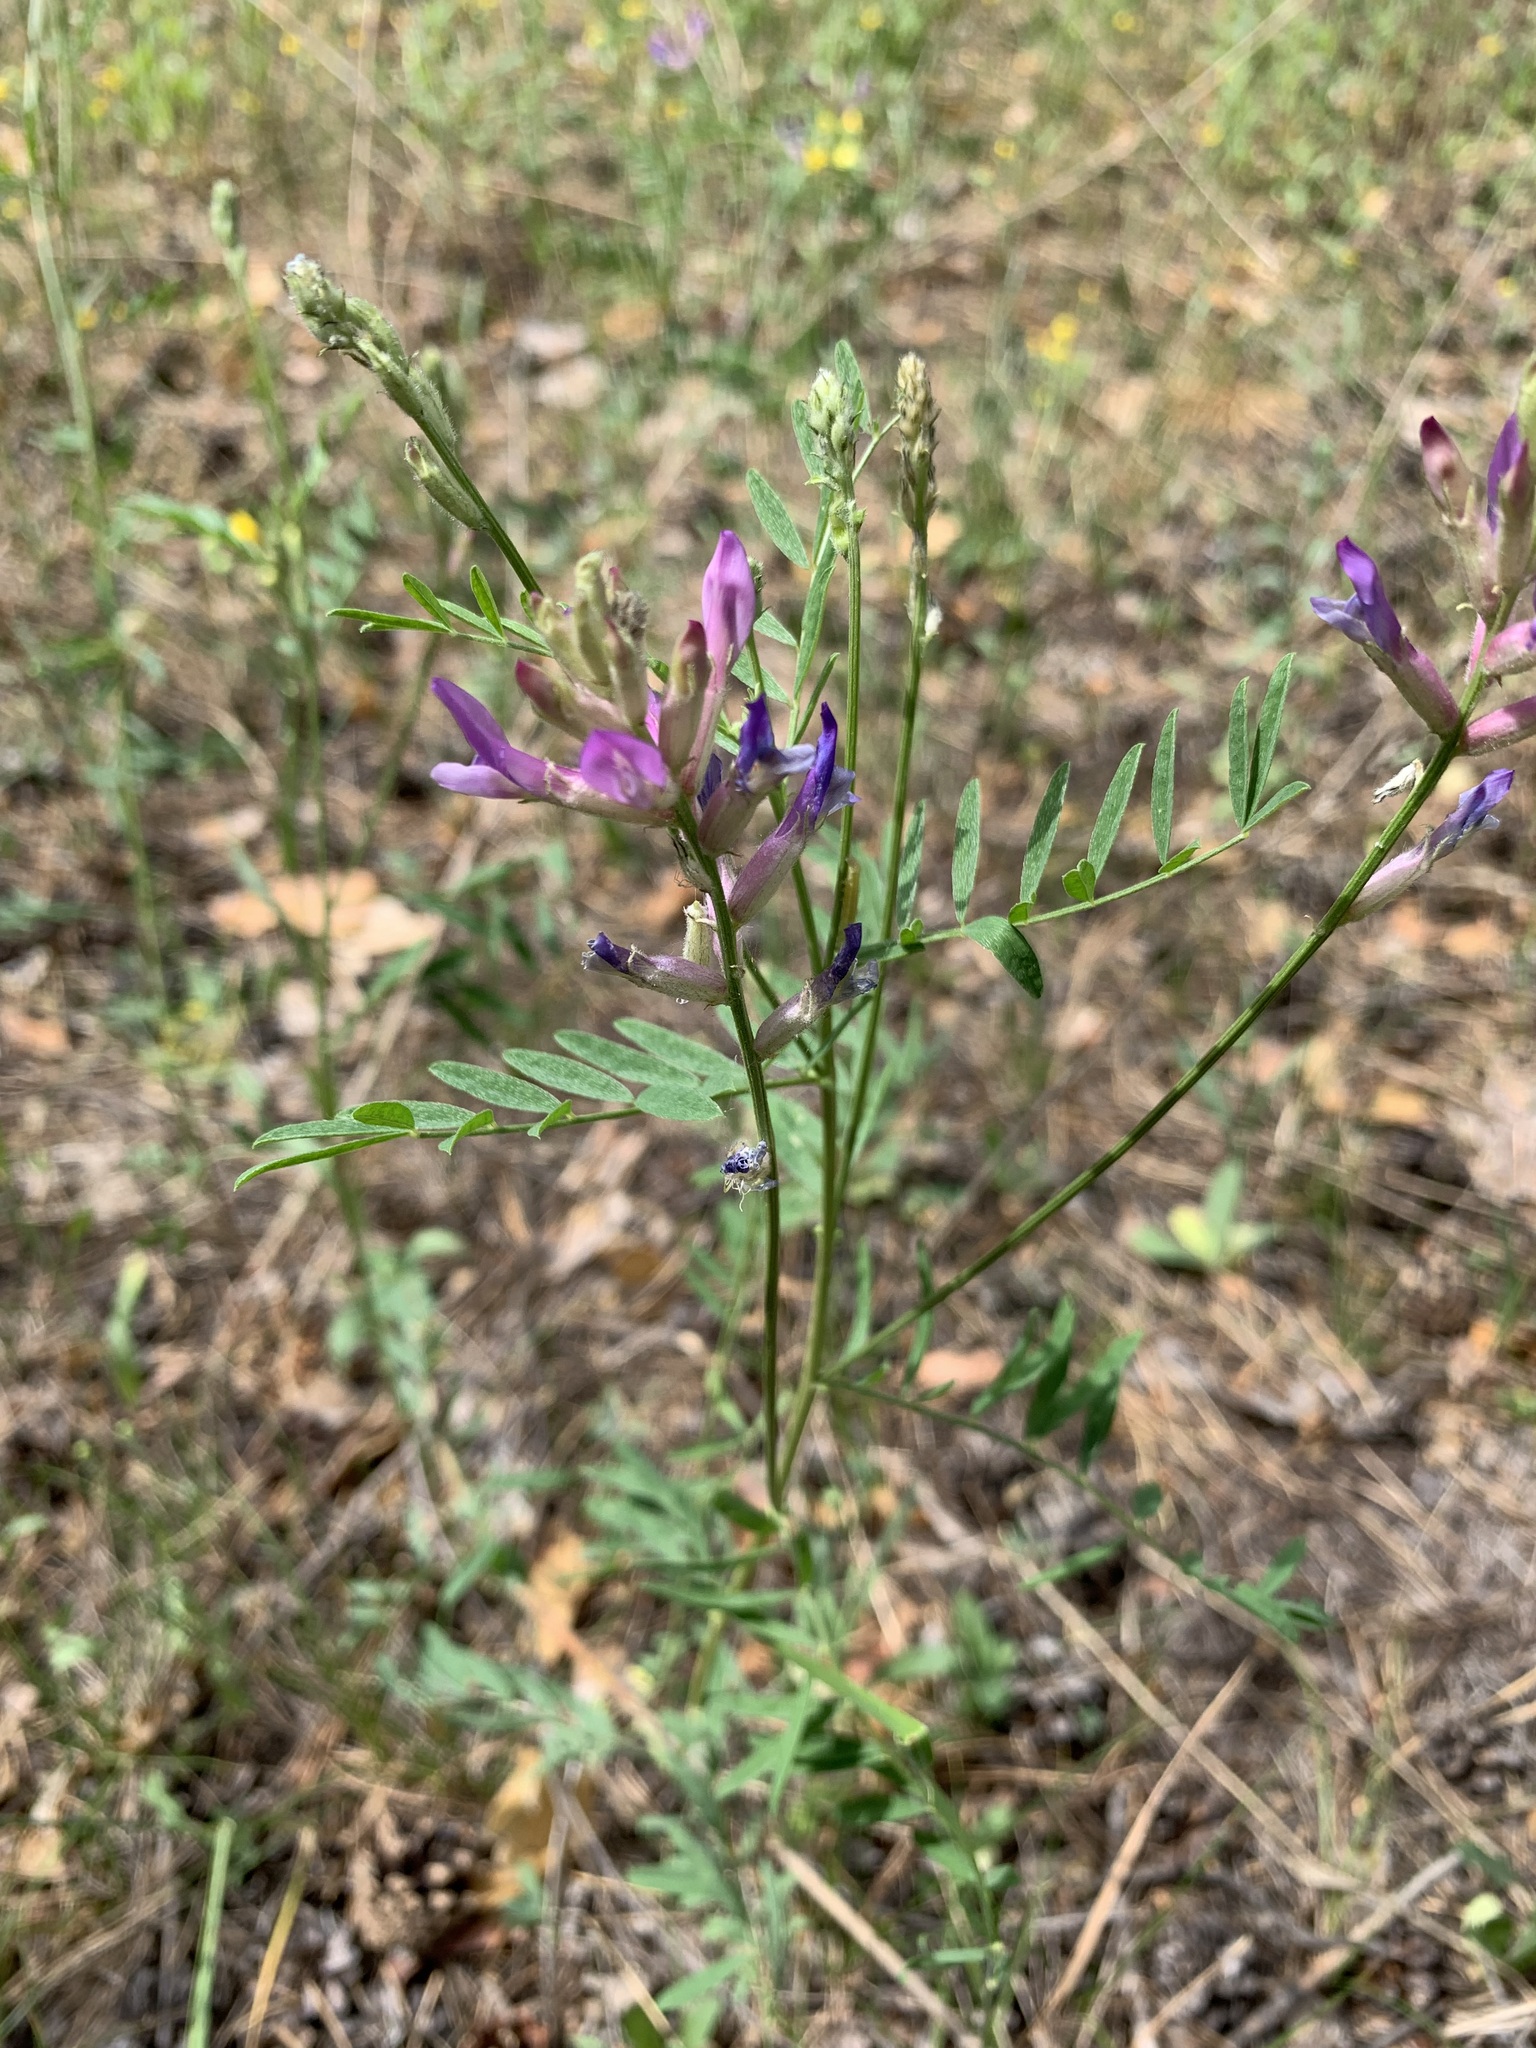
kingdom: Plantae
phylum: Tracheophyta
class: Magnoliopsida
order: Fabales
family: Fabaceae
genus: Astragalus
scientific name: Astragalus varius
